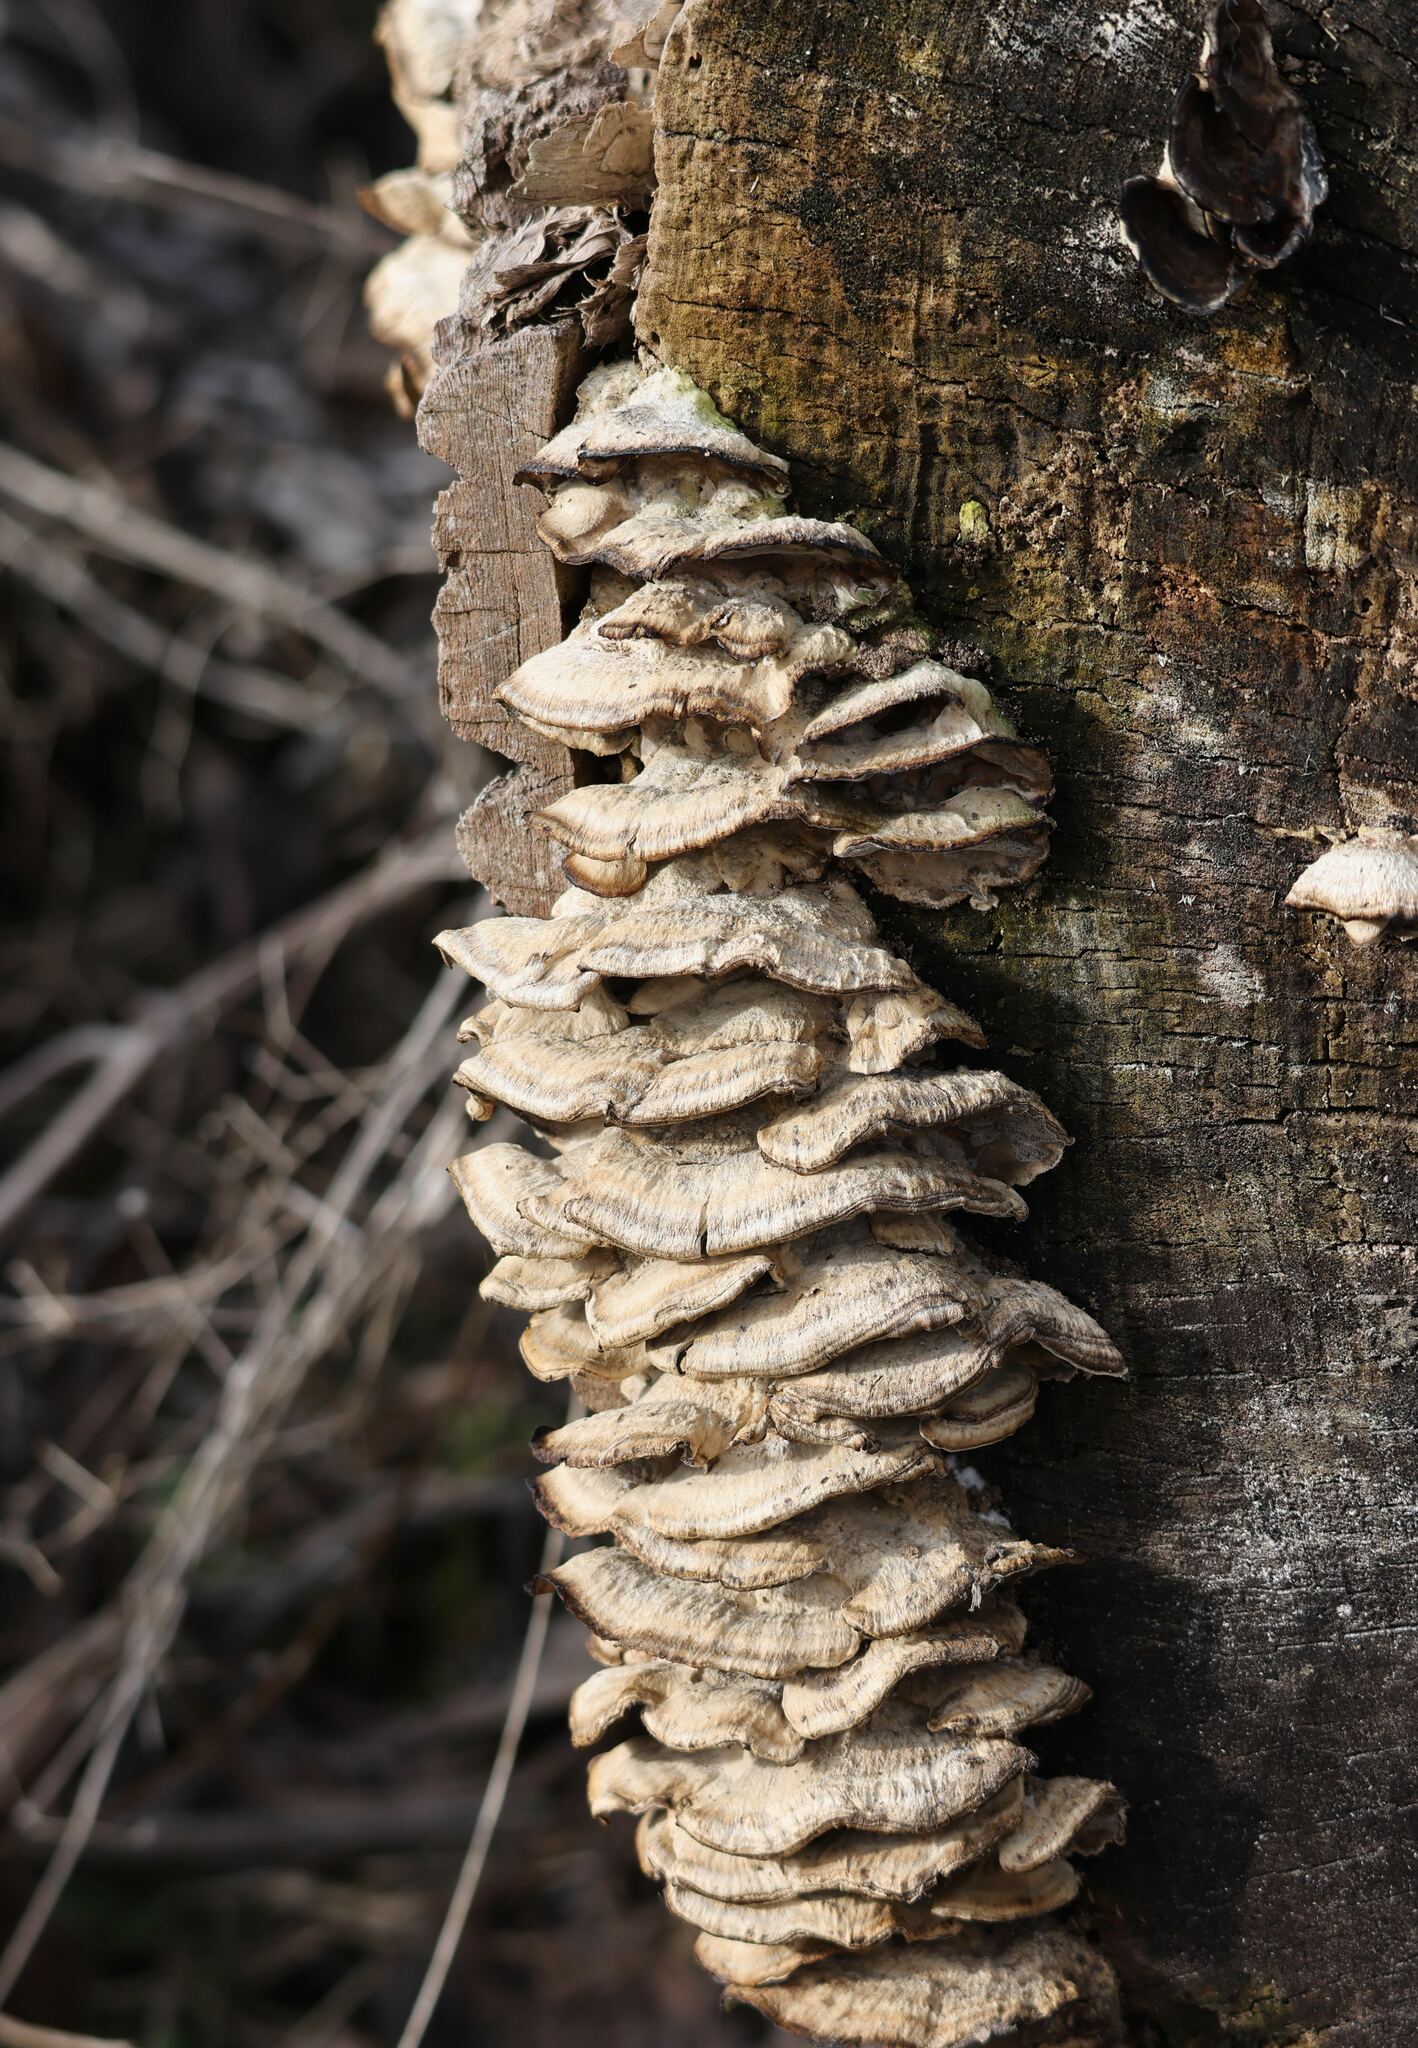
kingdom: Fungi
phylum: Basidiomycota
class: Agaricomycetes
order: Polyporales
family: Phanerochaetaceae
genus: Bjerkandera
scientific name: Bjerkandera adusta
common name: Smoky bracket
